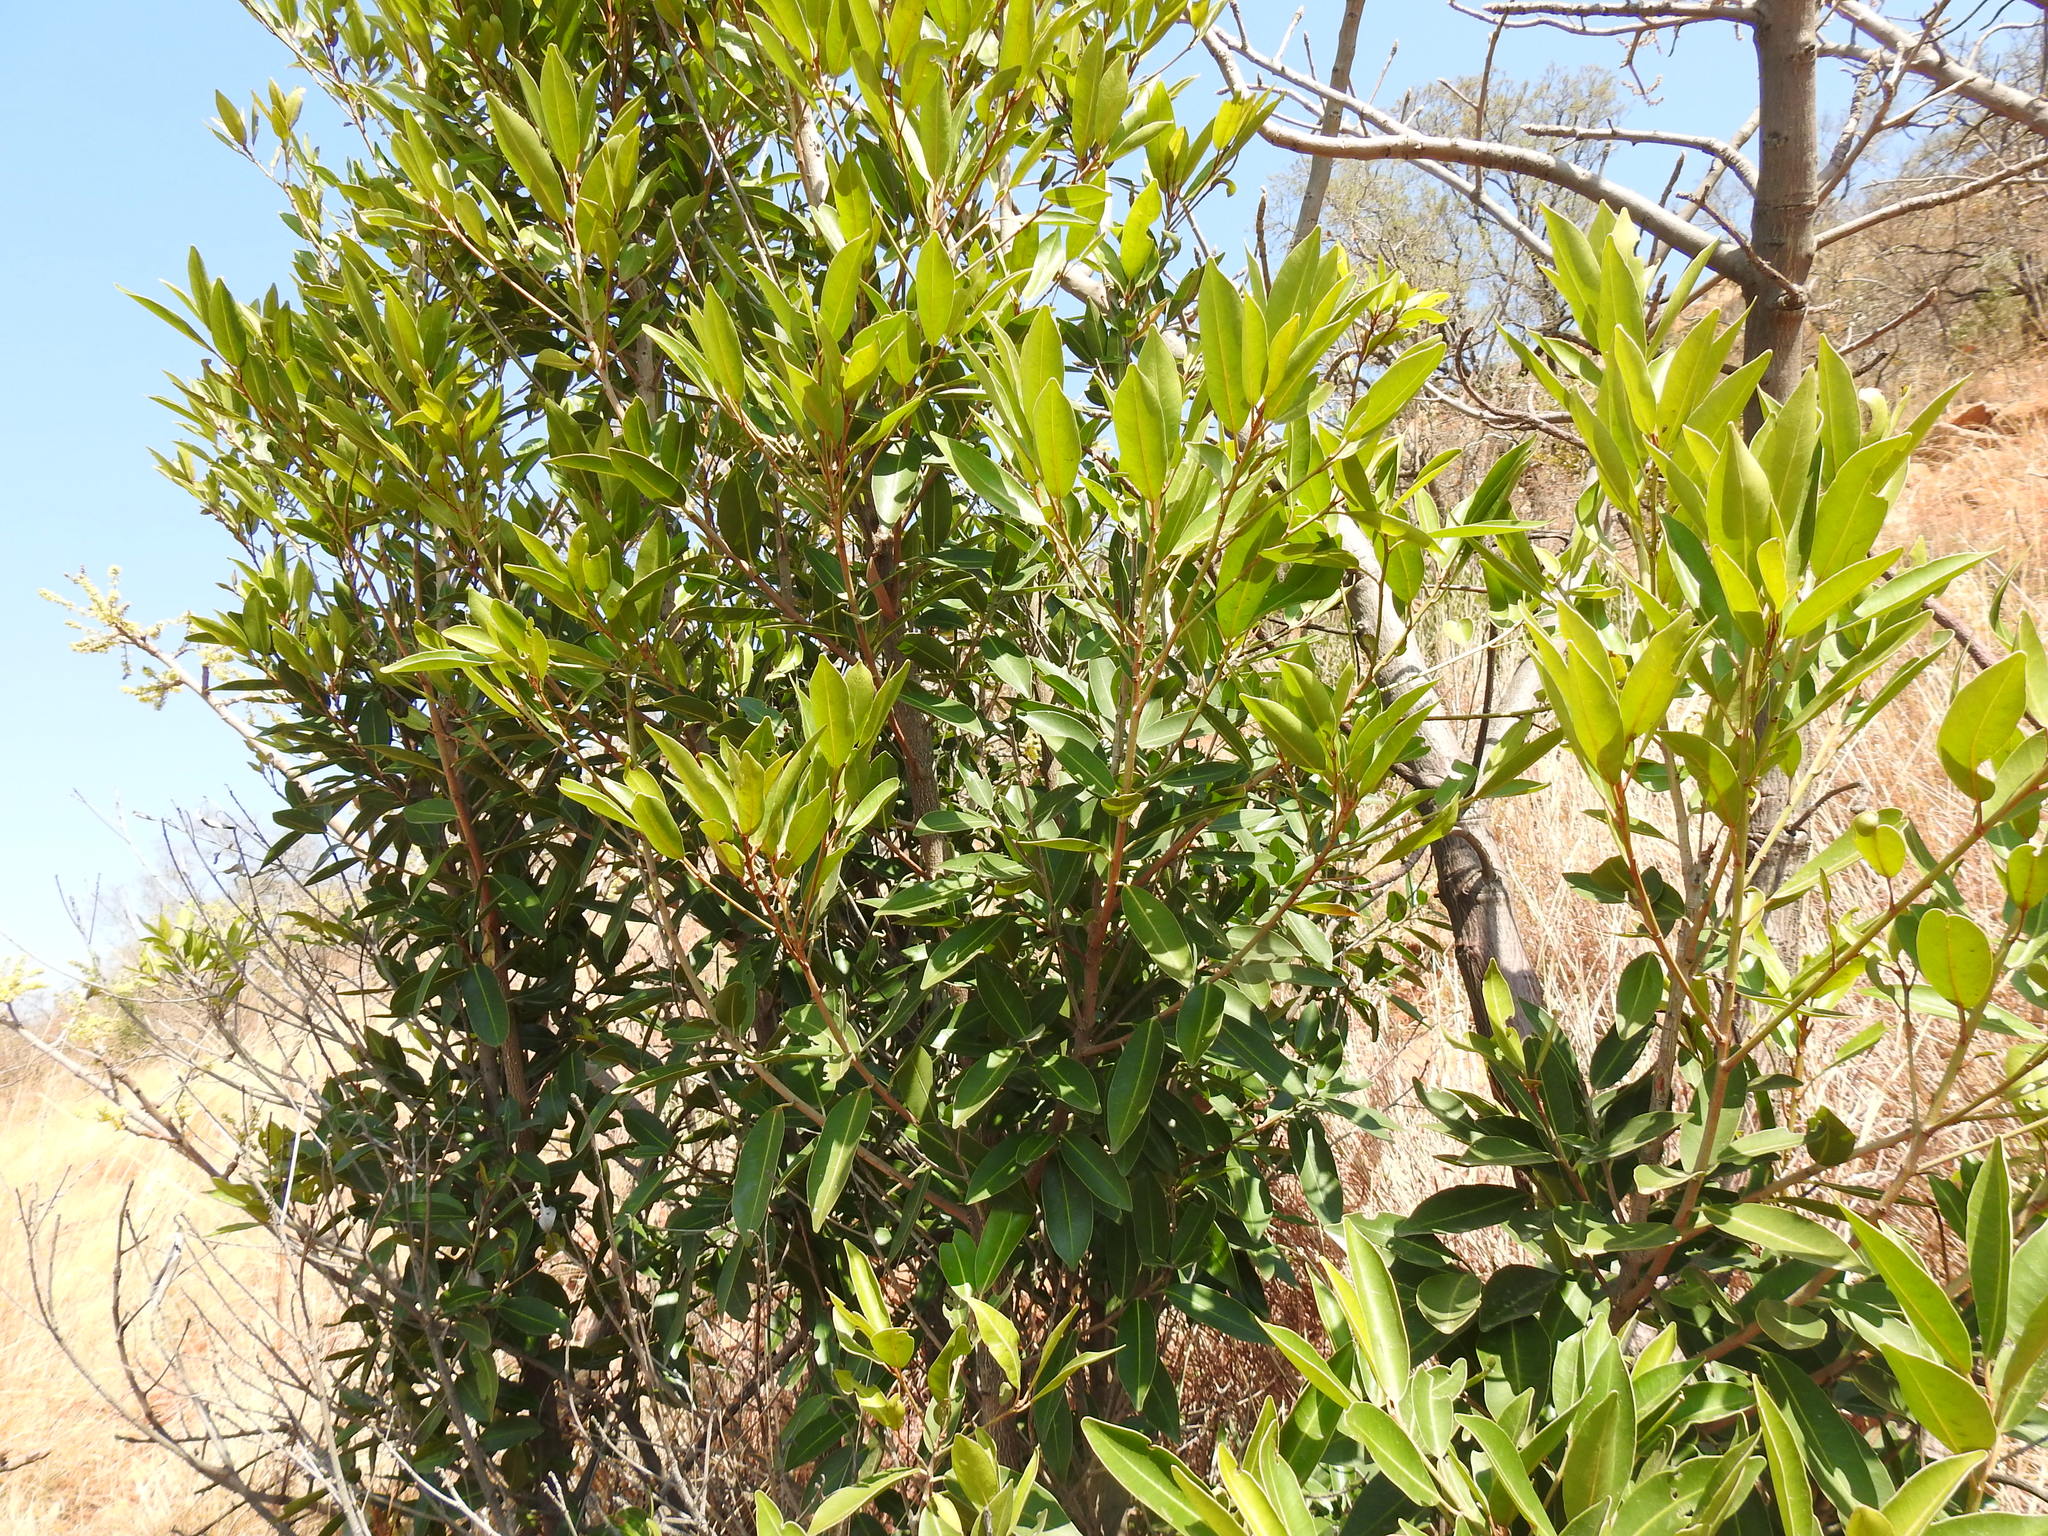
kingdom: Plantae
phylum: Tracheophyta
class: Magnoliopsida
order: Ericales
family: Sapotaceae
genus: Mimusops
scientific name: Mimusops zeyheri
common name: Transvaal red milkwood
